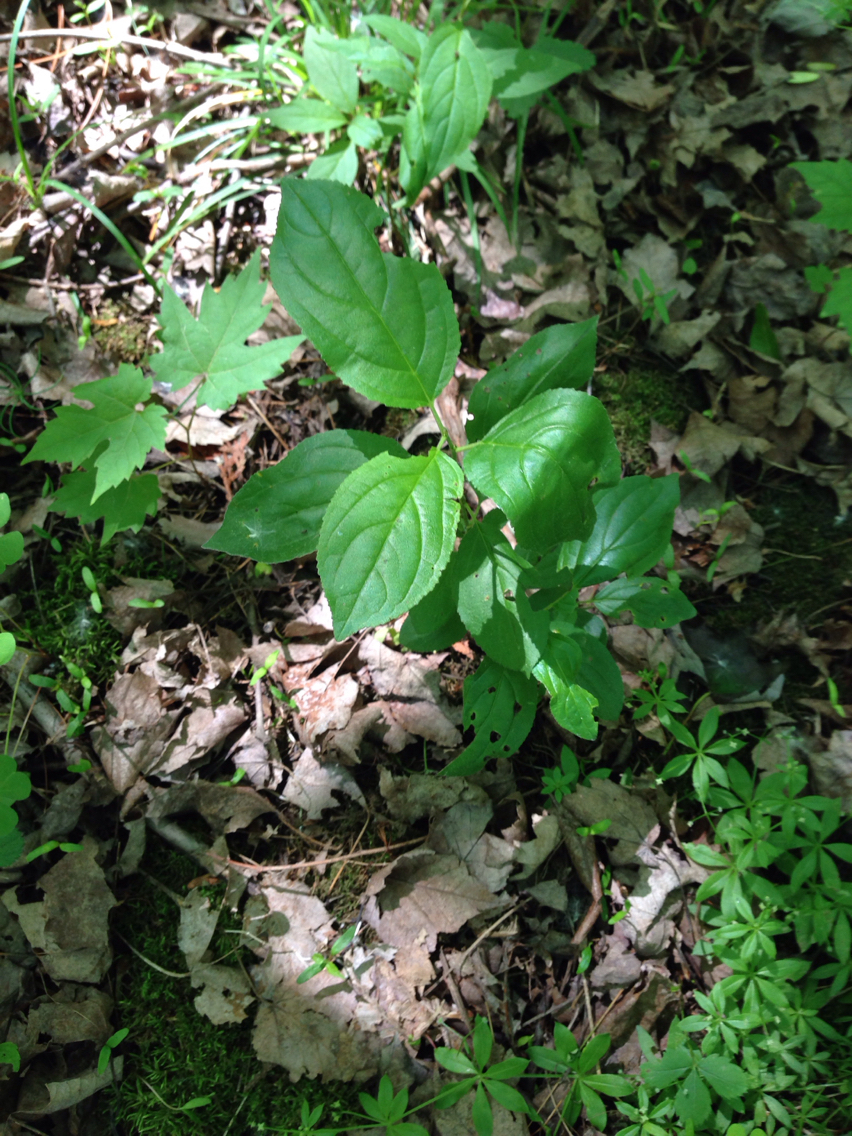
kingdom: Plantae
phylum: Tracheophyta
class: Magnoliopsida
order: Rosales
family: Rhamnaceae
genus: Rhamnus
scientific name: Rhamnus cathartica
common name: Common buckthorn
